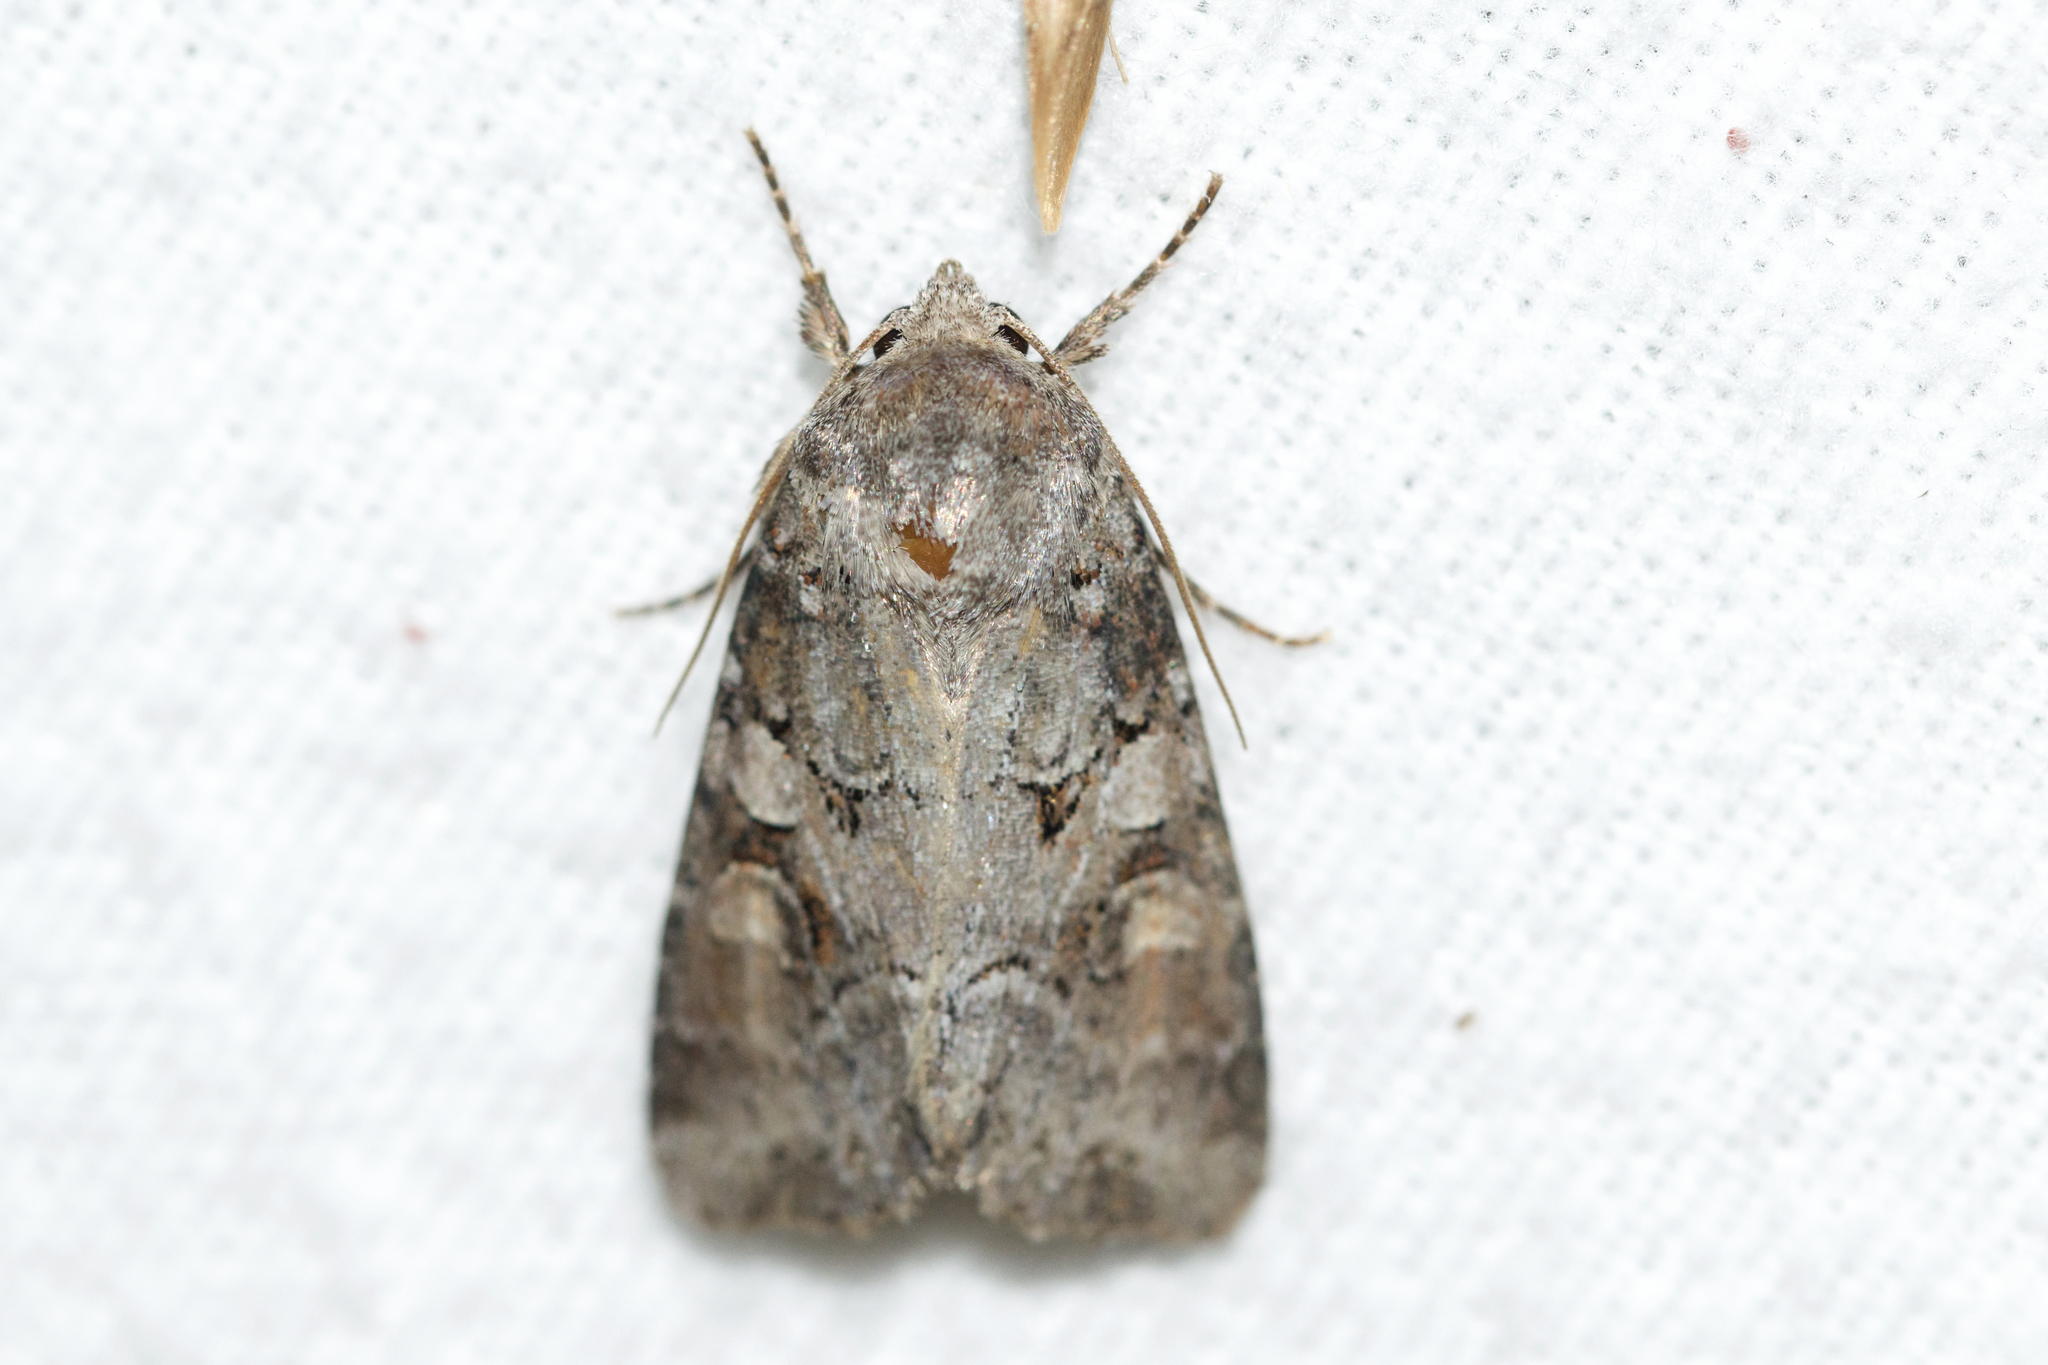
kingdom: Animalia
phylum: Arthropoda
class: Insecta
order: Lepidoptera
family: Noctuidae
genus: Trichordestra
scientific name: Trichordestra legitima
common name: Striped garden caterpillar
